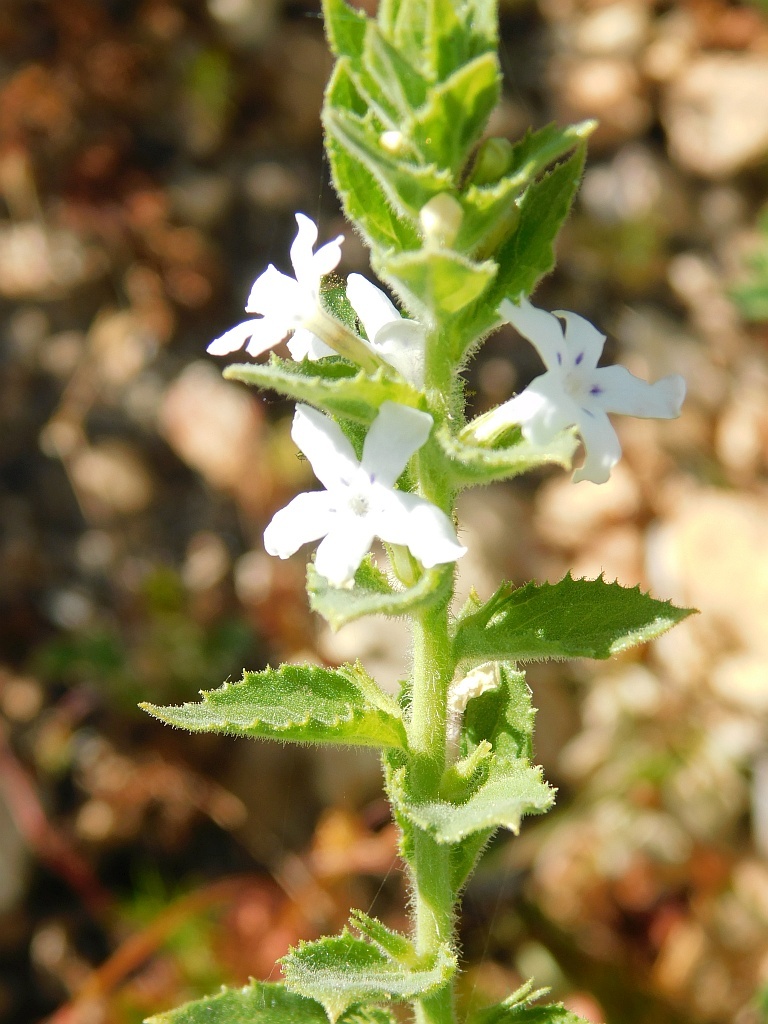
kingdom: Plantae
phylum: Tracheophyta
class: Magnoliopsida
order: Lamiales
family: Scrophulariaceae
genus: Oftia
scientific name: Oftia africana
